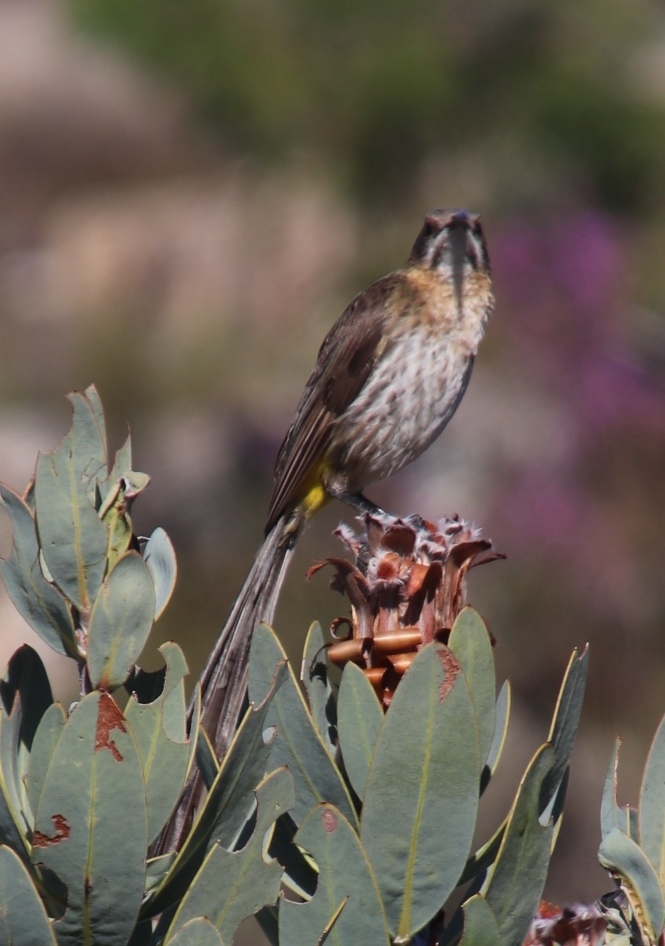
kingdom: Animalia
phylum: Chordata
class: Aves
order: Passeriformes
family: Promeropidae
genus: Promerops
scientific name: Promerops cafer
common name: Cape sugarbird
